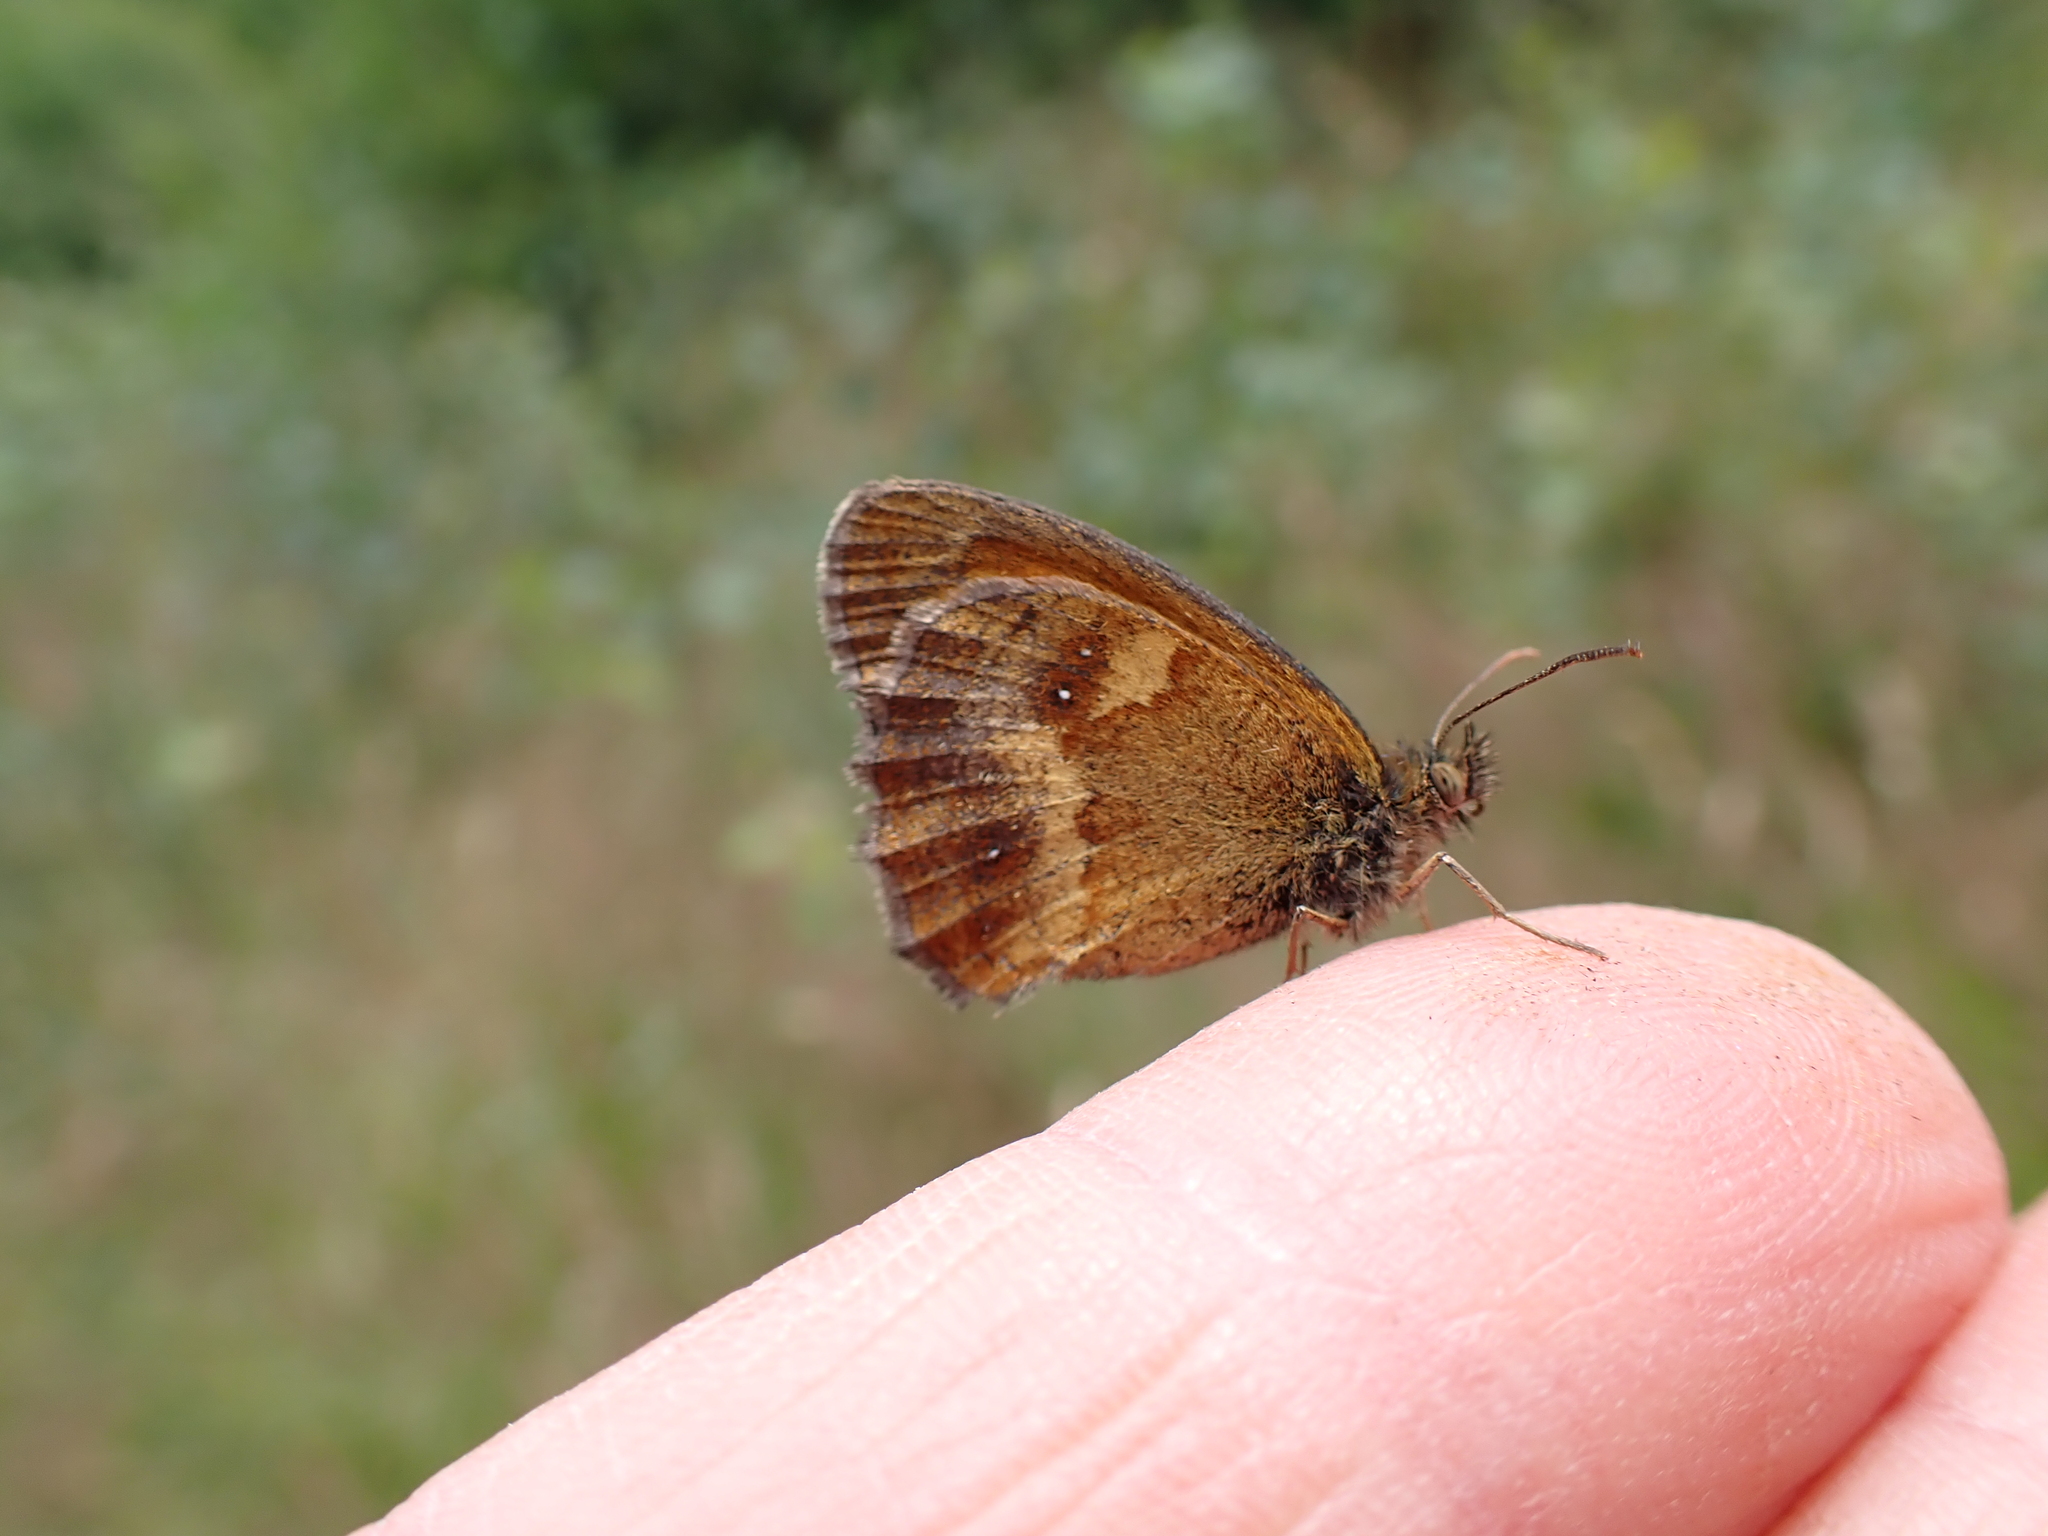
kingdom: Animalia
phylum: Arthropoda
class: Insecta
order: Lepidoptera
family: Nymphalidae
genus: Pyronia
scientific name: Pyronia tithonus
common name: Gatekeeper
